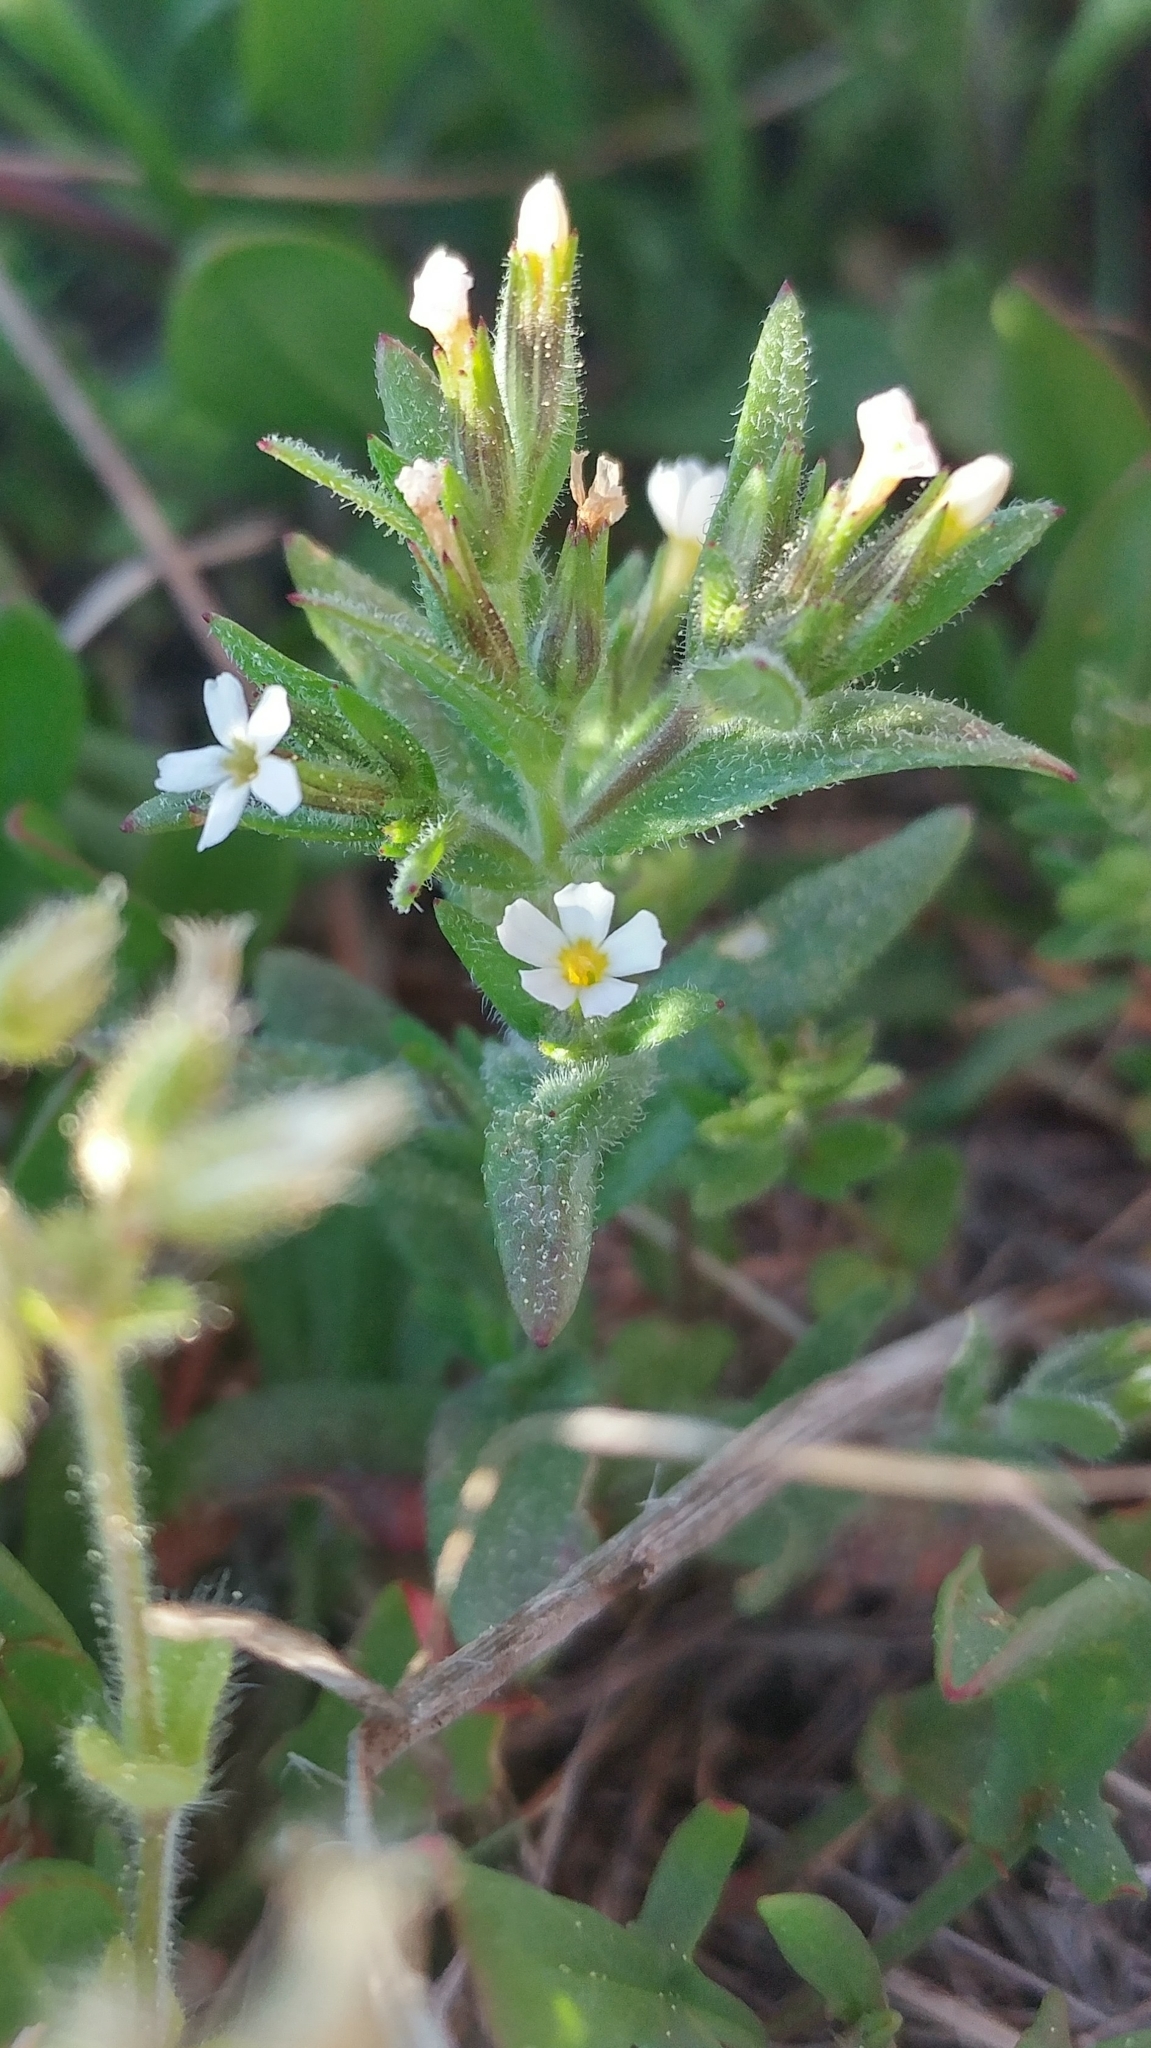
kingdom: Plantae
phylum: Tracheophyta
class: Magnoliopsida
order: Ericales
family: Polemoniaceae
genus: Phlox
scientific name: Phlox gracilis
